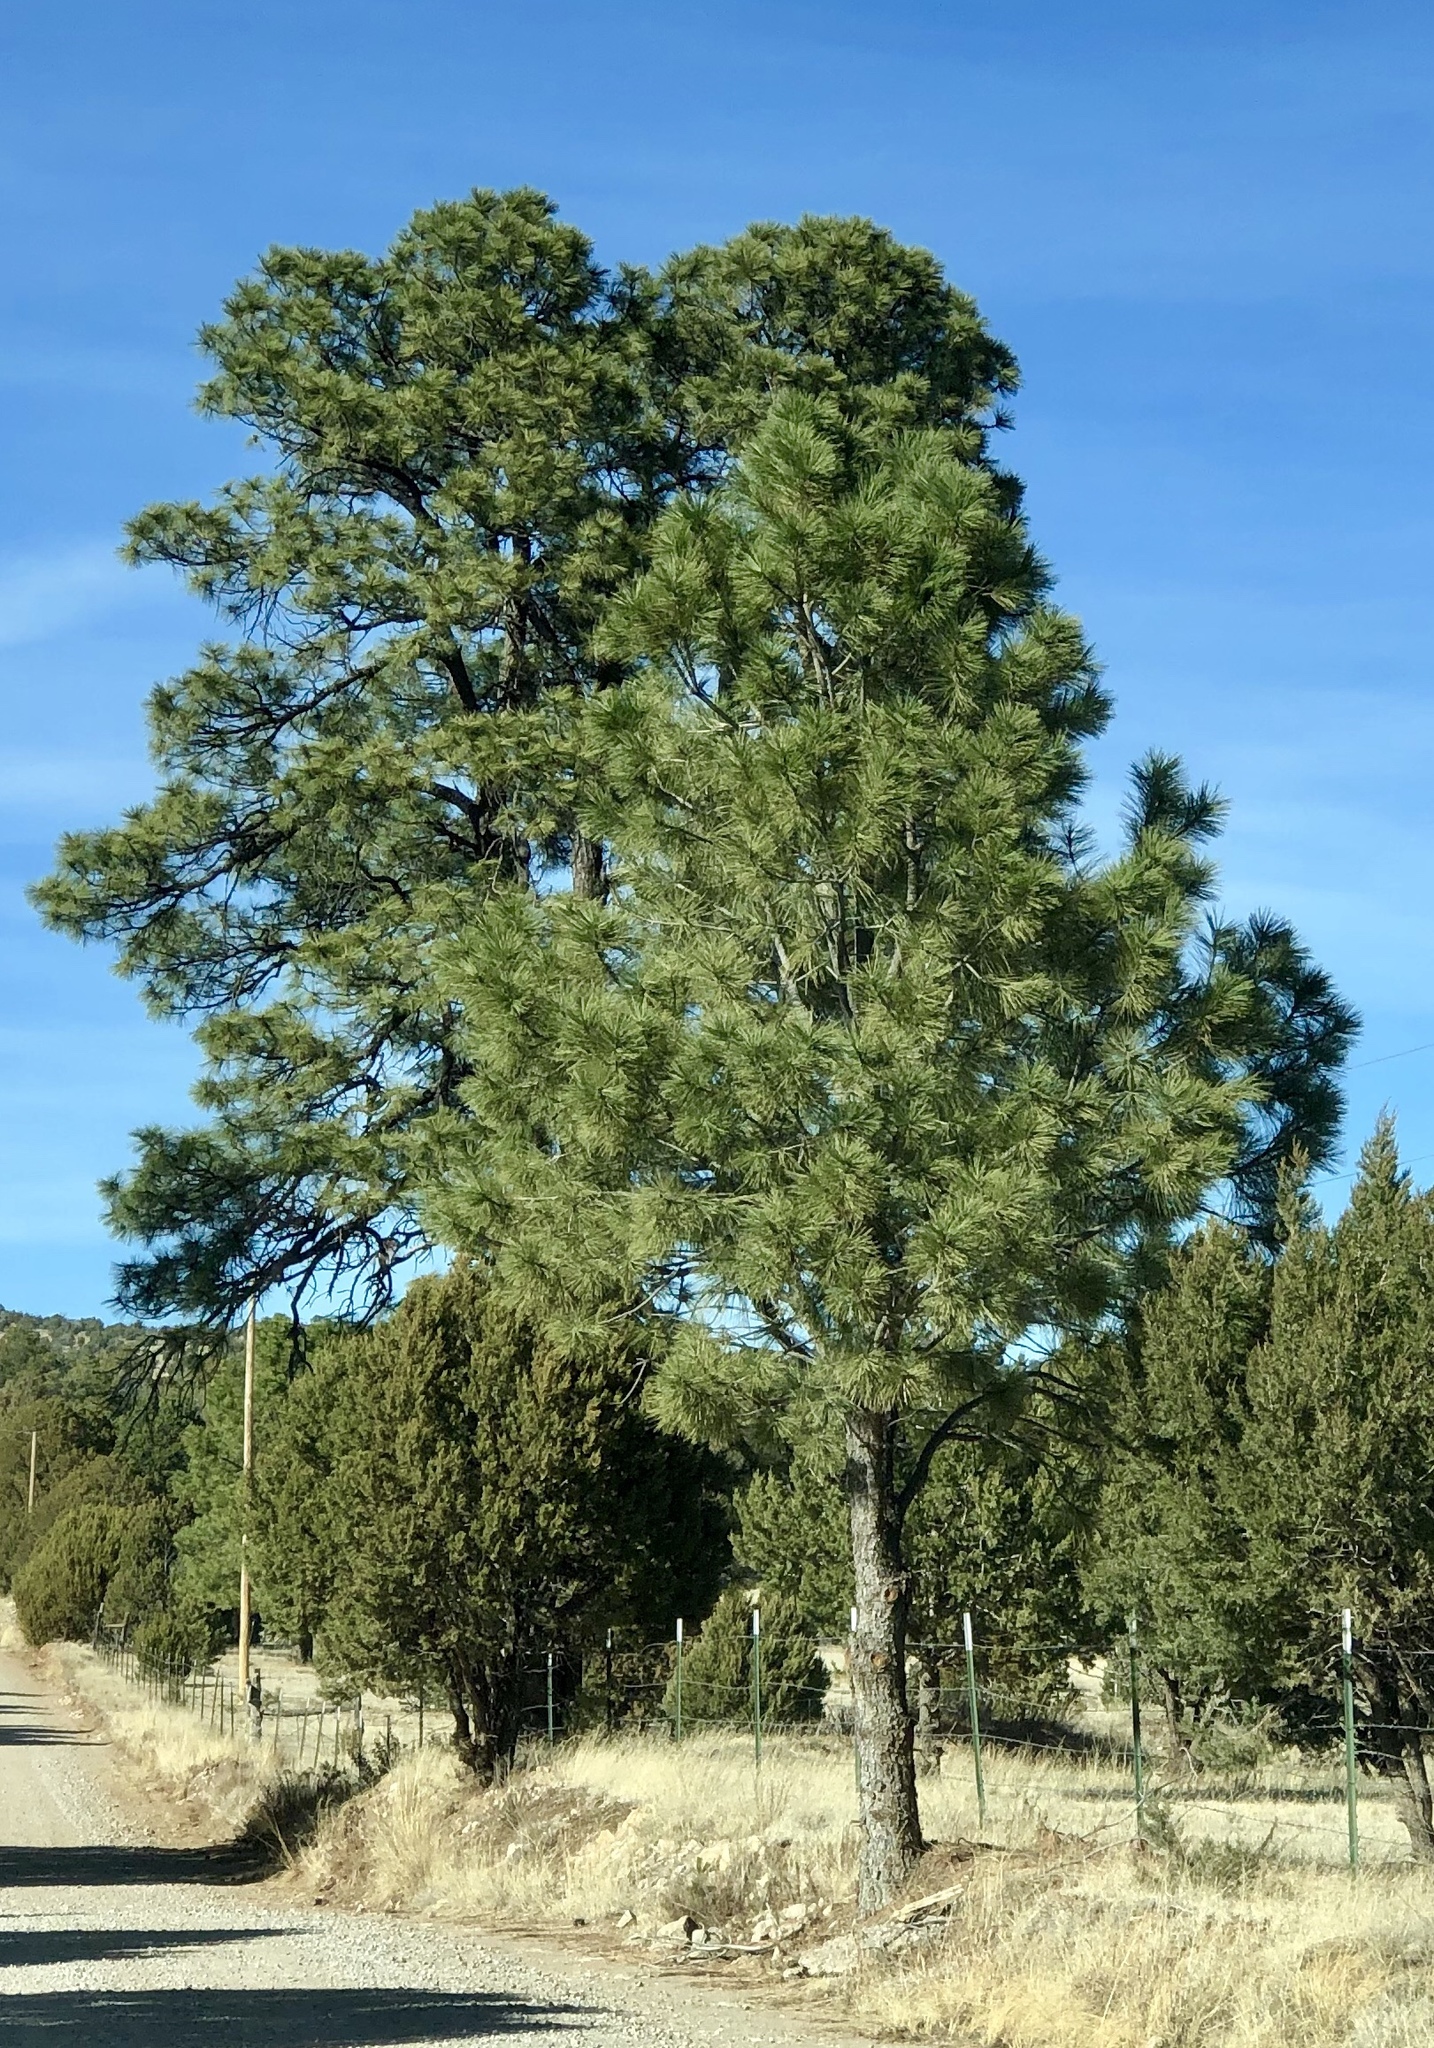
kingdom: Plantae
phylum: Tracheophyta
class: Pinopsida
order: Pinales
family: Pinaceae
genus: Pinus
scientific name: Pinus ponderosa
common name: Western yellow-pine
